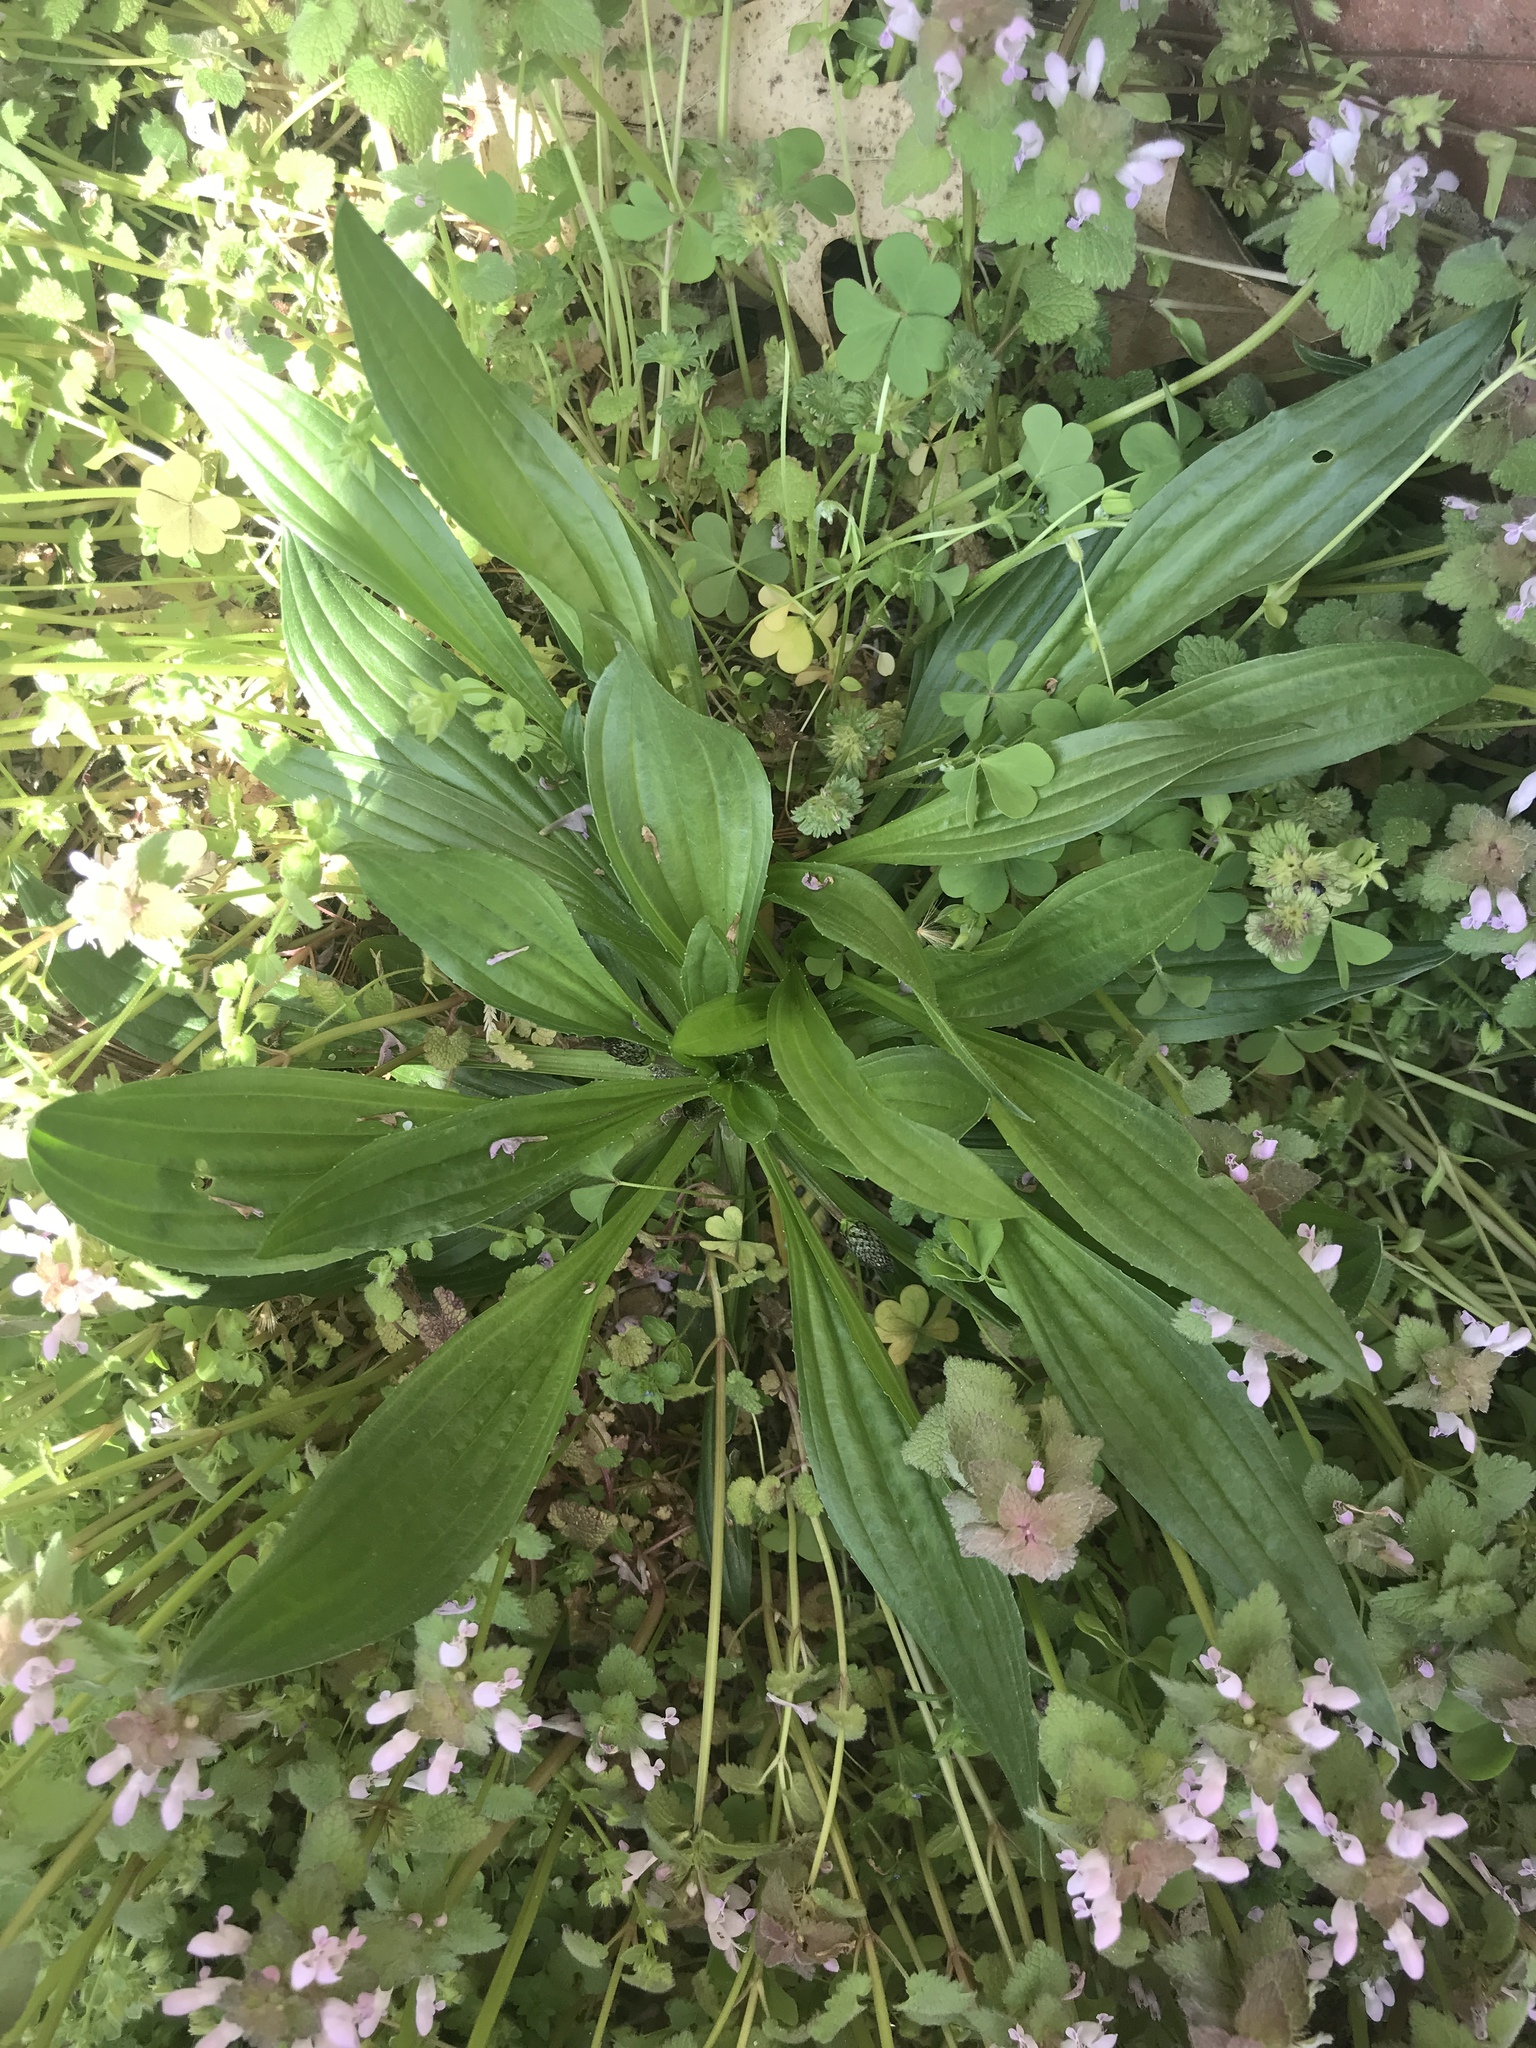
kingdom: Plantae
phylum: Tracheophyta
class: Magnoliopsida
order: Lamiales
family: Plantaginaceae
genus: Plantago
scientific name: Plantago lanceolata
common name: Ribwort plantain
